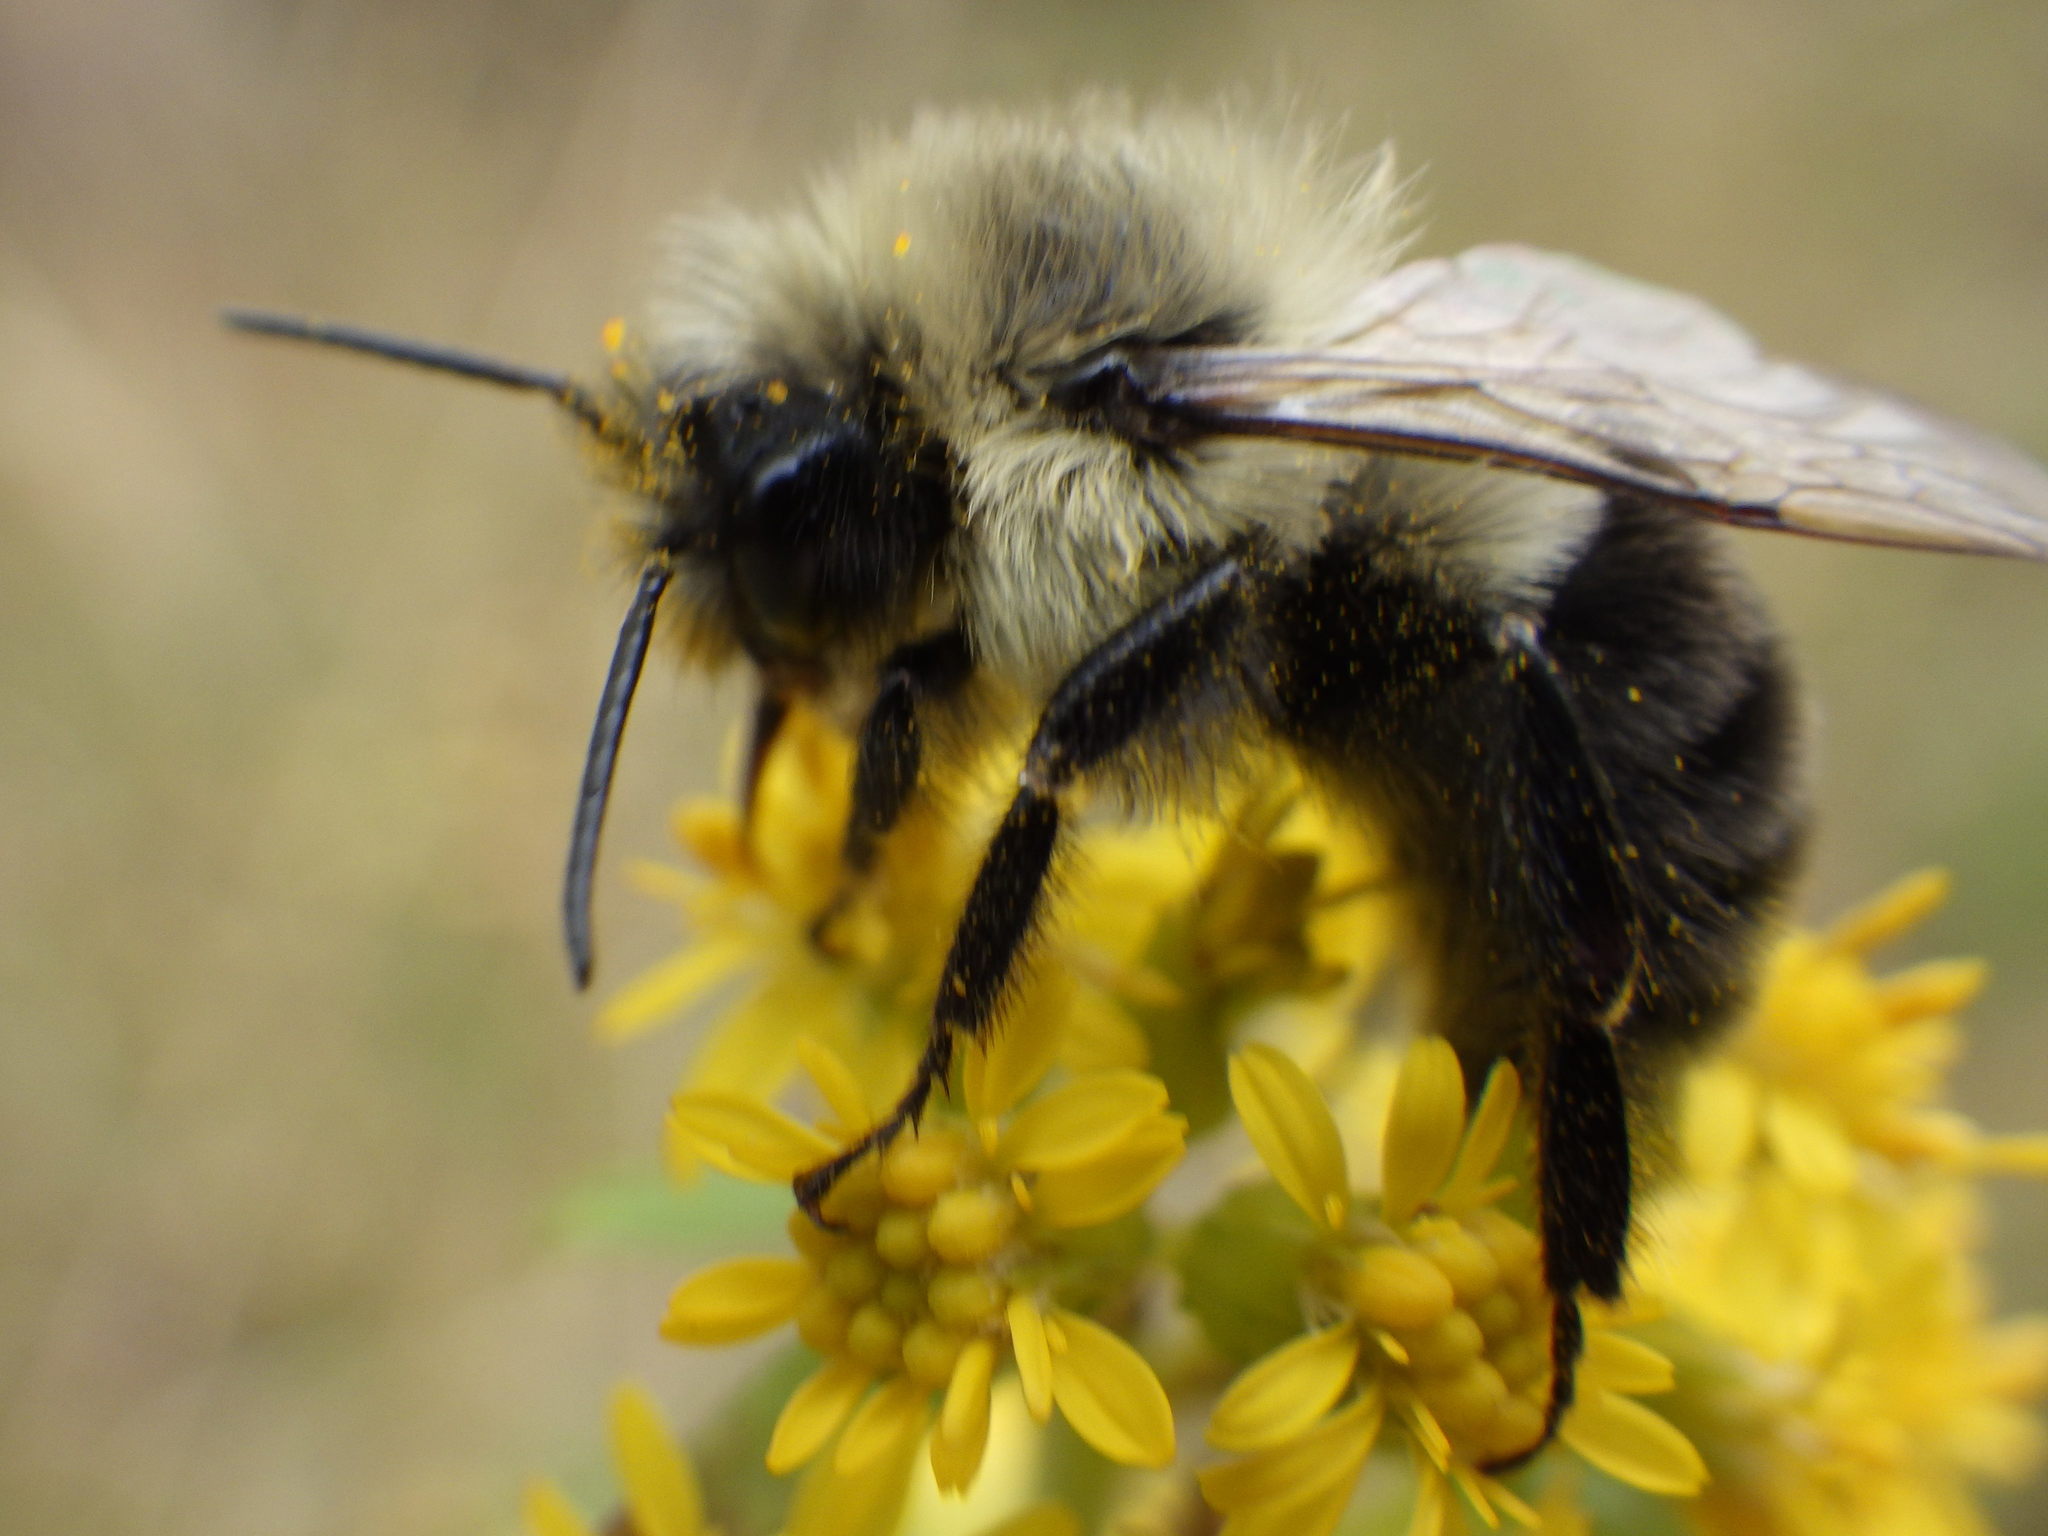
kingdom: Animalia
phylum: Arthropoda
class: Insecta
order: Hymenoptera
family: Apidae
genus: Bombus
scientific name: Bombus impatiens
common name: Common eastern bumble bee
